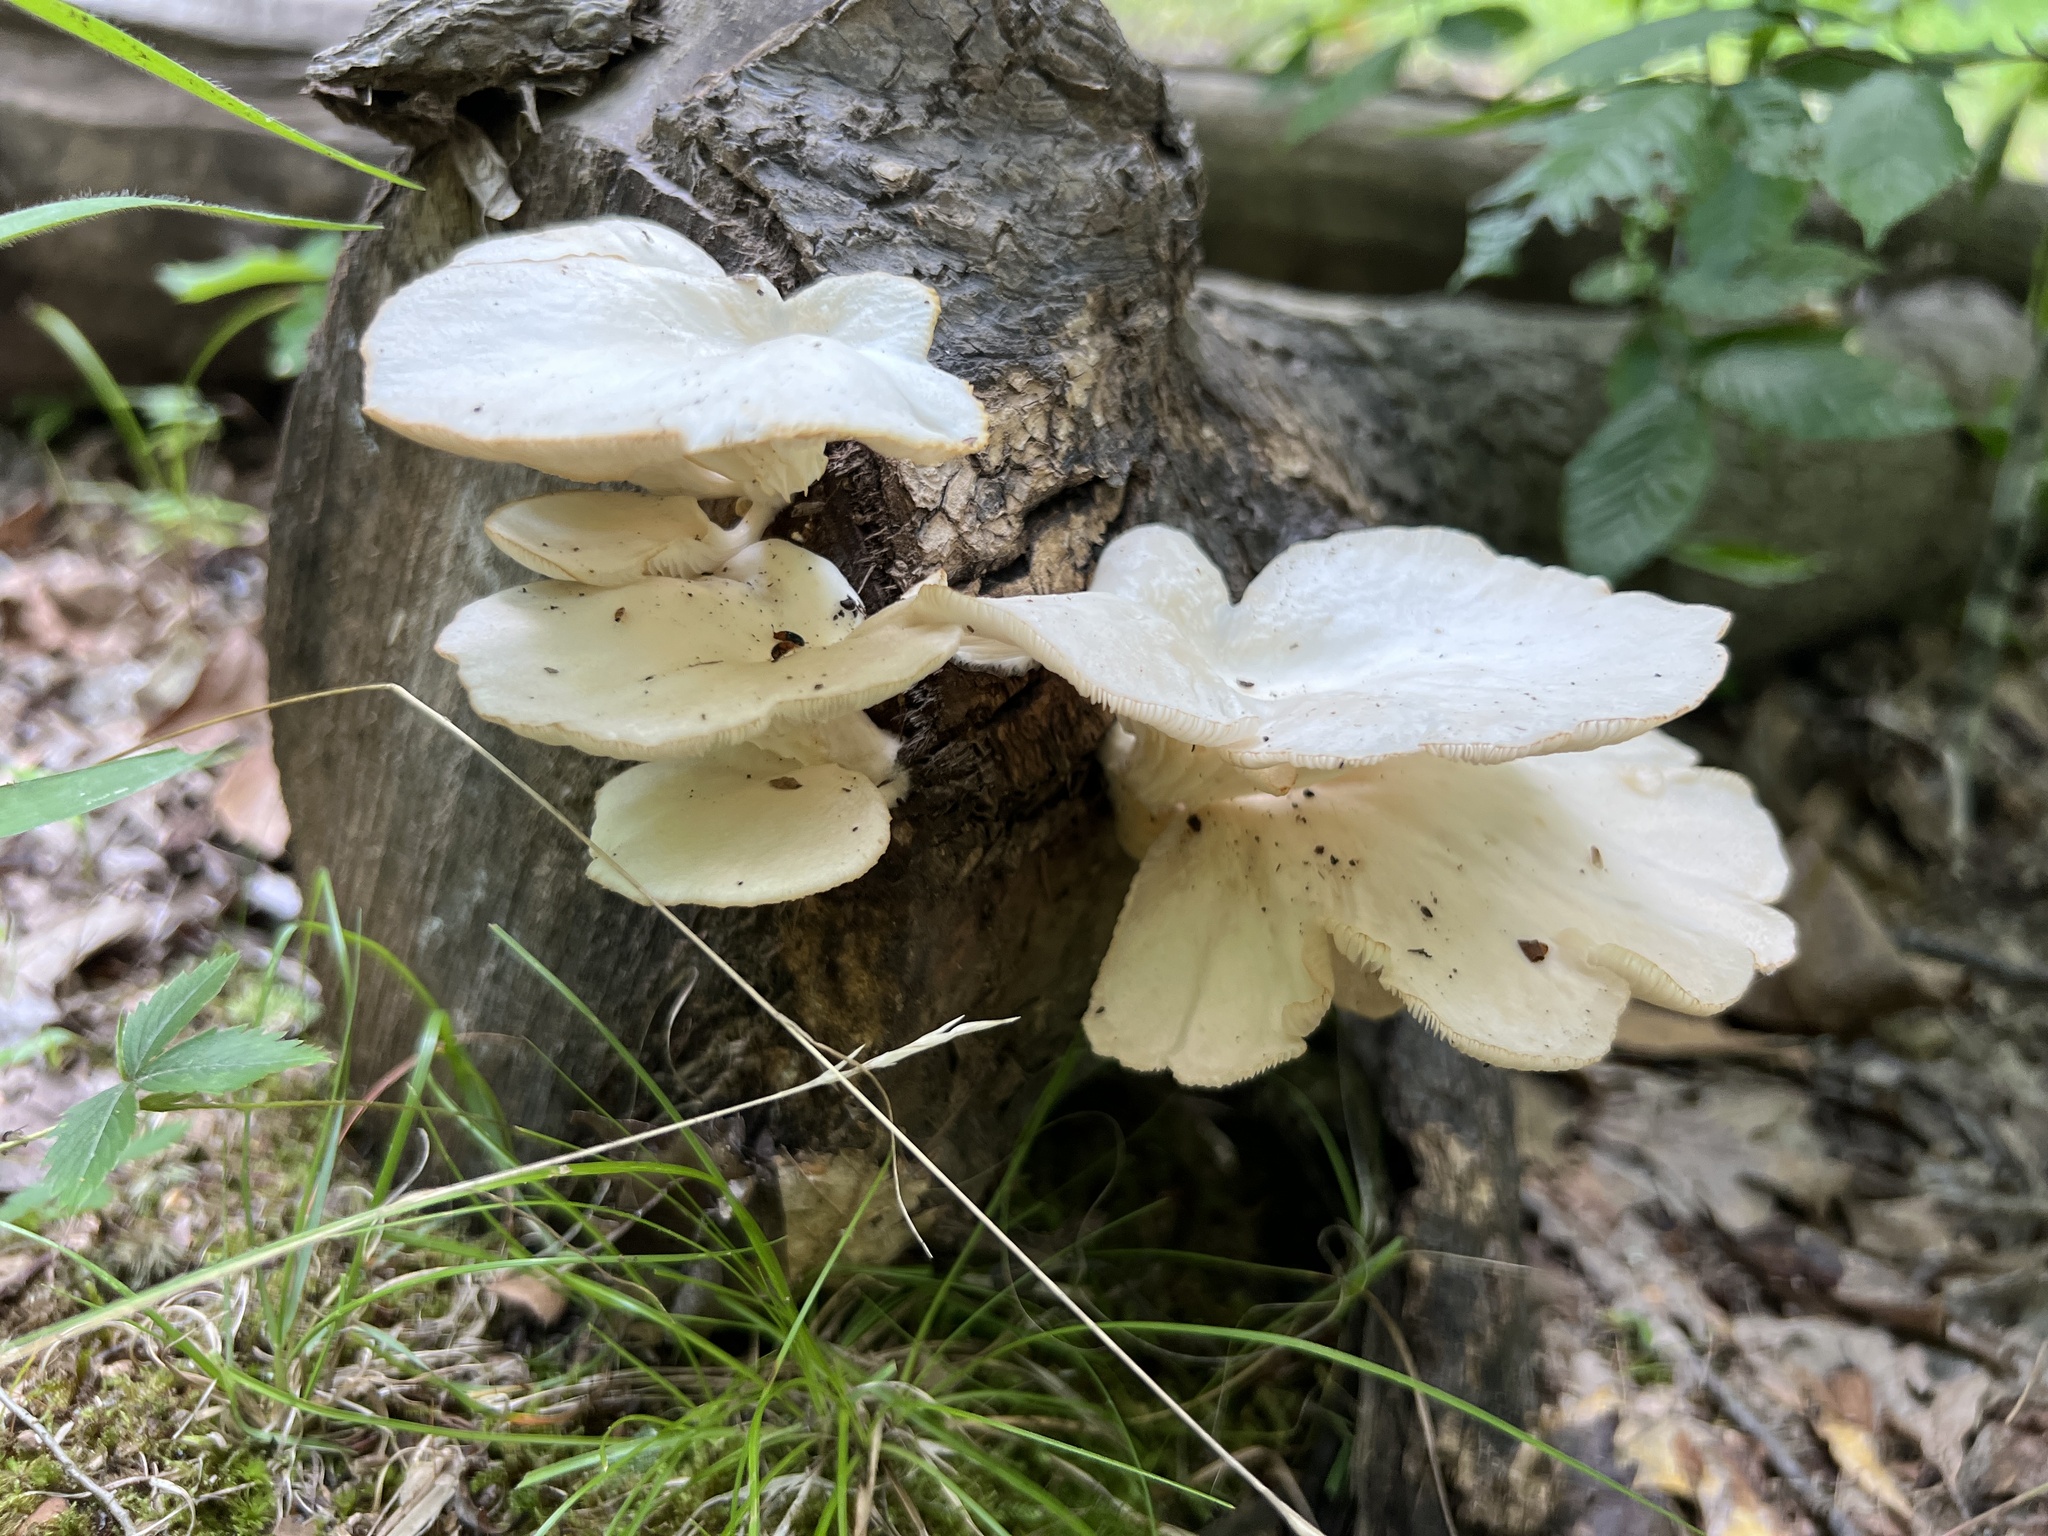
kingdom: Fungi
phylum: Basidiomycota
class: Agaricomycetes
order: Agaricales
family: Pleurotaceae
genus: Pleurotus
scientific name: Pleurotus pulmonarius
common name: Pale oyster
